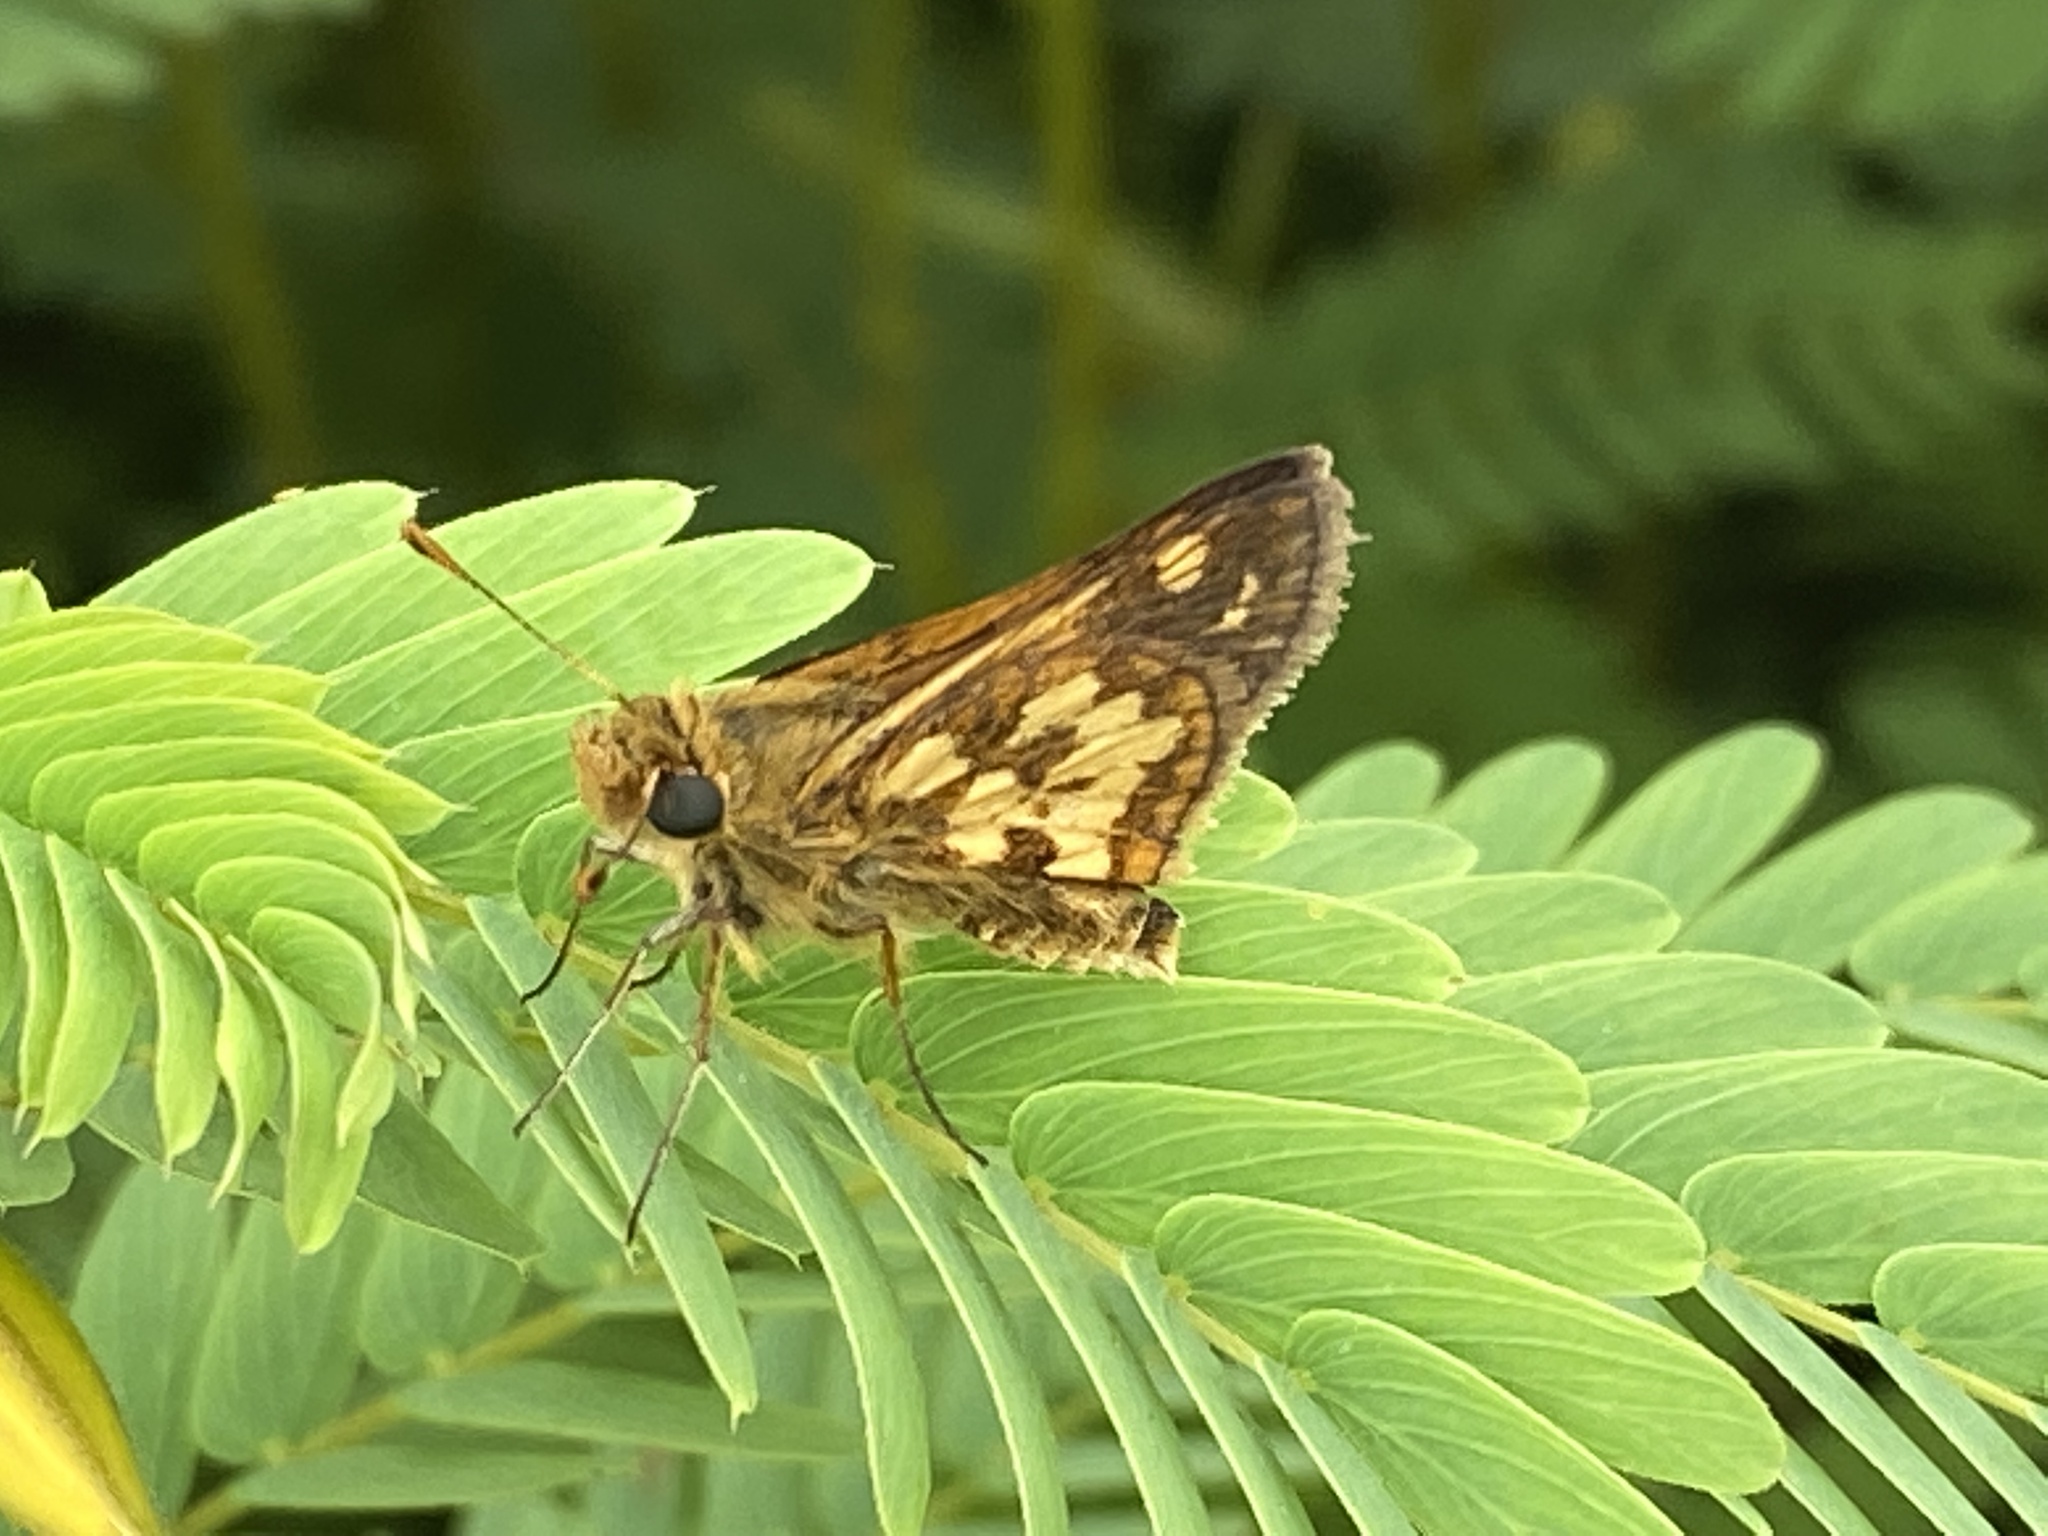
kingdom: Animalia
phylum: Arthropoda
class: Insecta
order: Lepidoptera
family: Hesperiidae
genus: Polites
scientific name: Polites coras
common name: Peck's skipper
